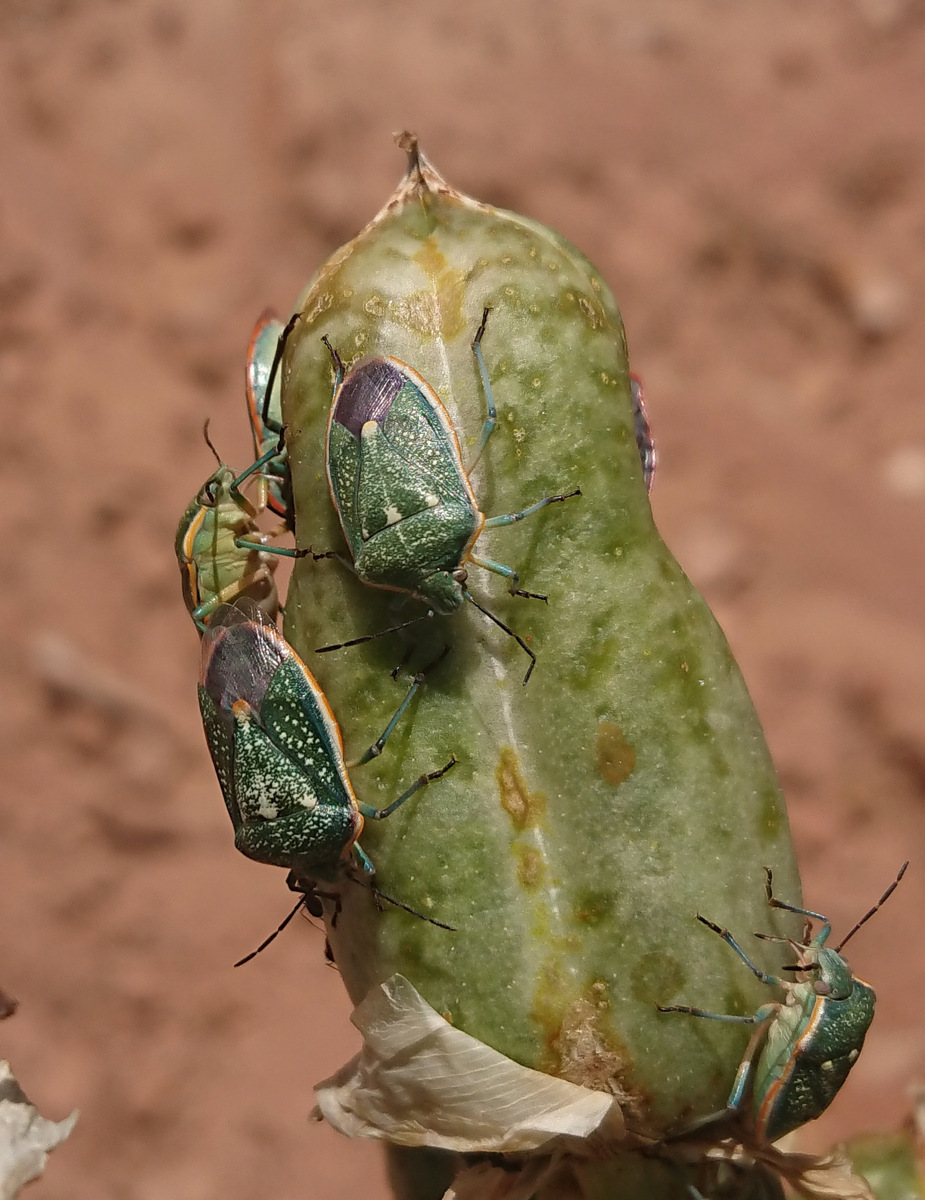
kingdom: Animalia
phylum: Arthropoda
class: Insecta
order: Hemiptera
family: Pentatomidae
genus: Chlorochroa
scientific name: Chlorochroa sayi
